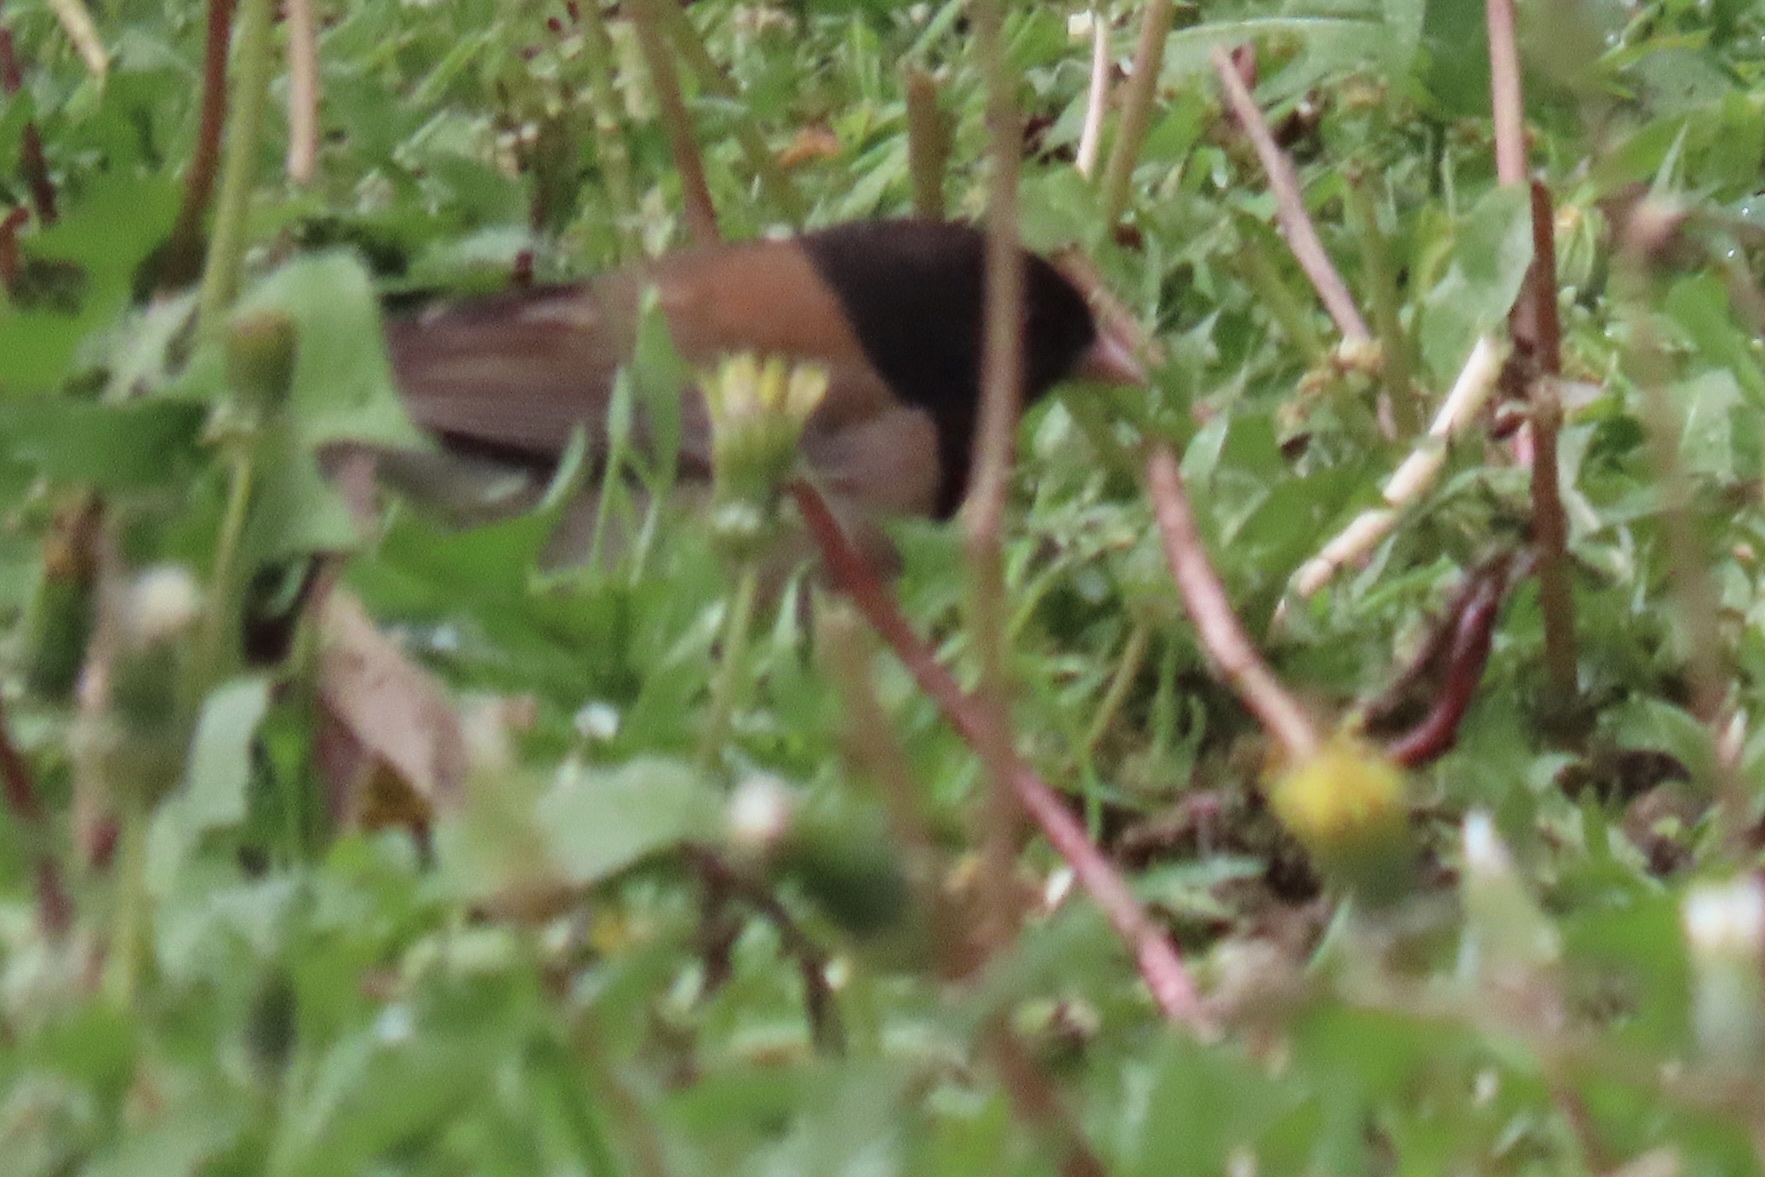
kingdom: Animalia
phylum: Chordata
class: Aves
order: Passeriformes
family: Passerellidae
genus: Junco
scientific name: Junco hyemalis
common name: Dark-eyed junco
